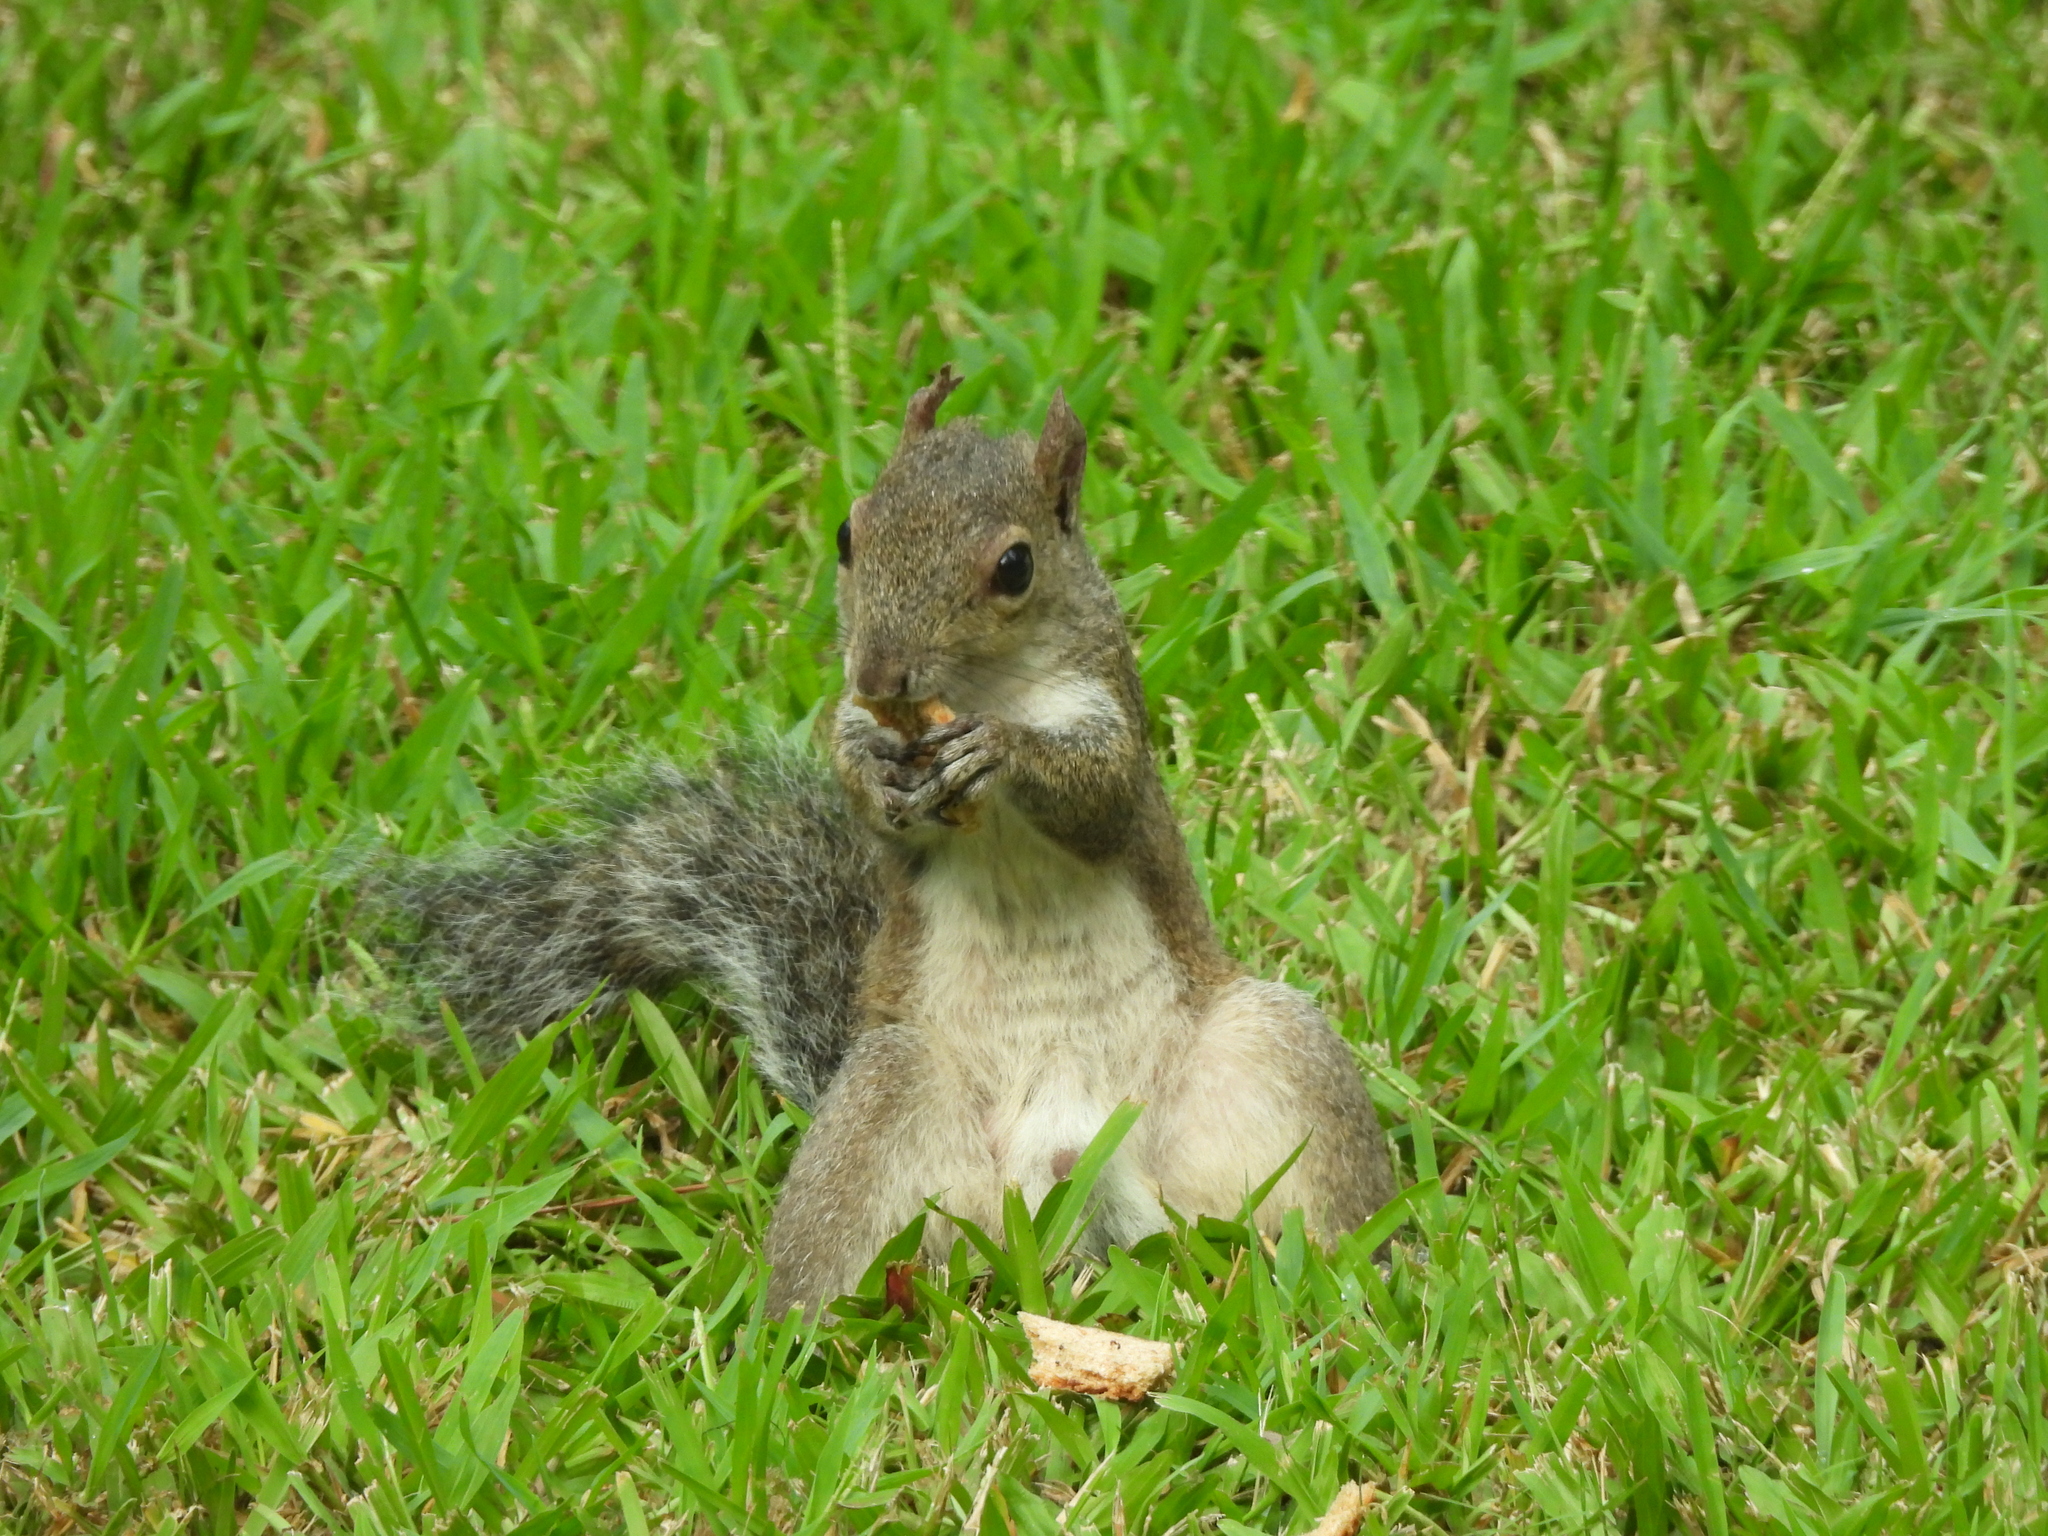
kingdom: Animalia
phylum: Chordata
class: Mammalia
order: Rodentia
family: Sciuridae
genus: Sciurus
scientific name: Sciurus carolinensis
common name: Eastern gray squirrel
